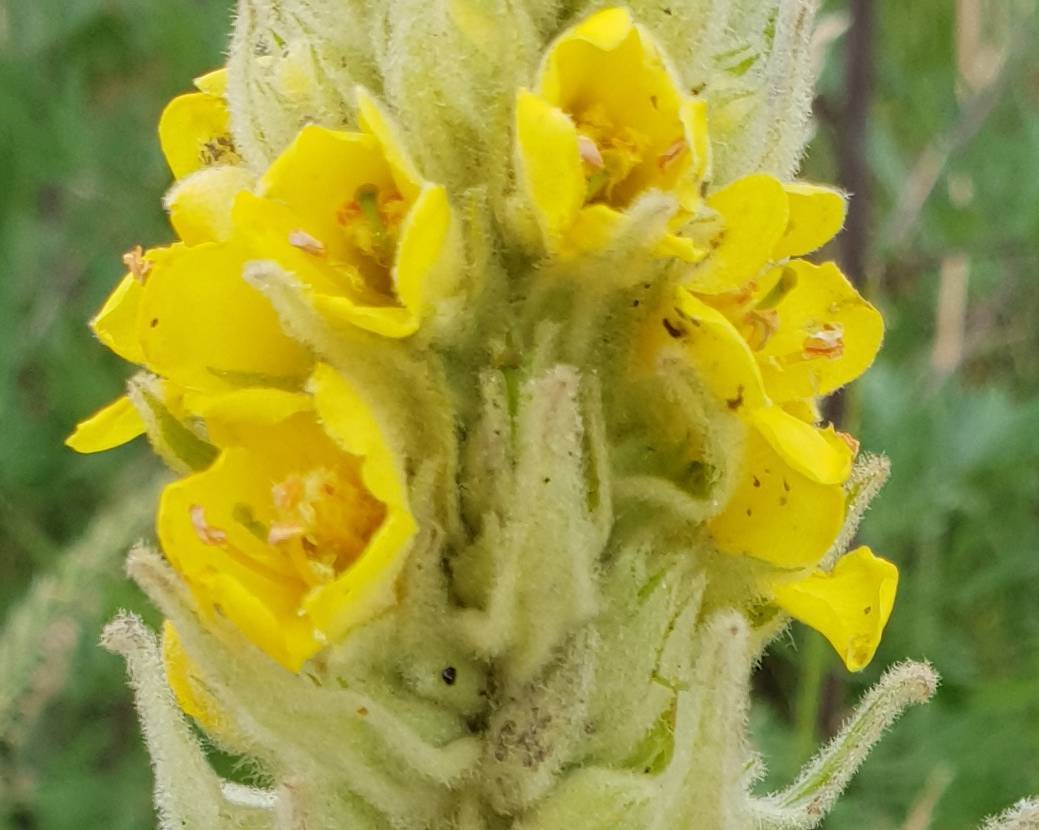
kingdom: Plantae
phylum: Tracheophyta
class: Magnoliopsida
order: Lamiales
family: Scrophulariaceae
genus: Verbascum
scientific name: Verbascum thapsus
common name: Common mullein
